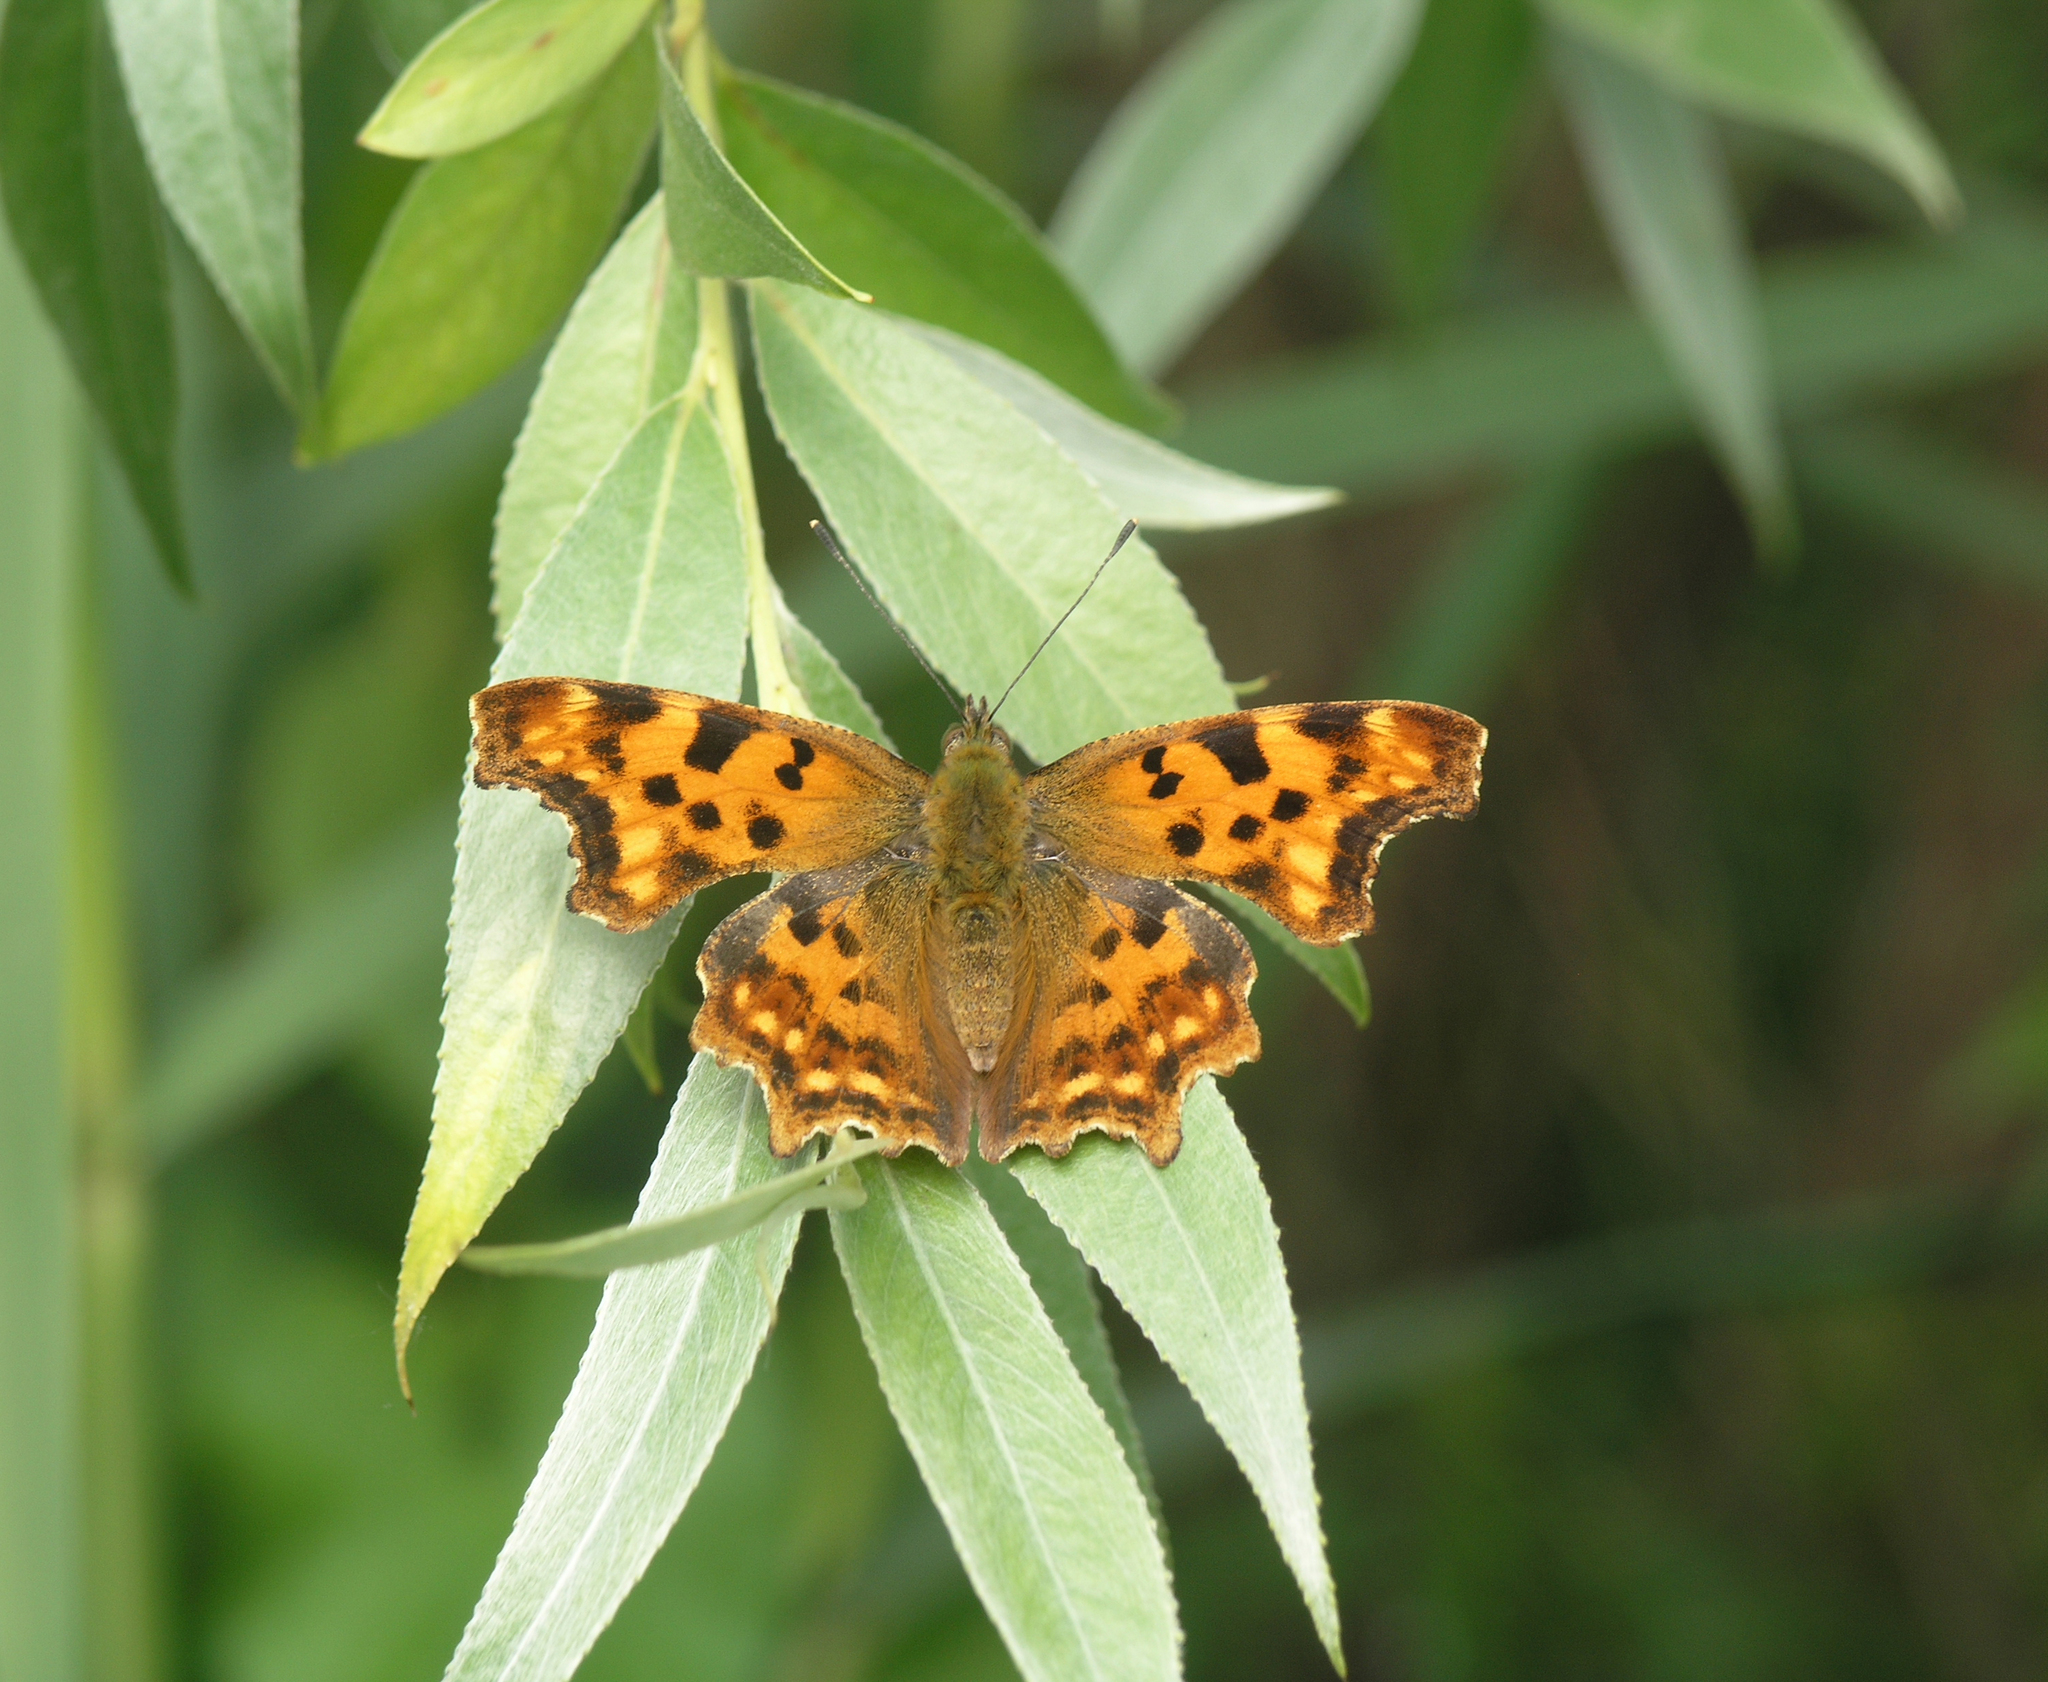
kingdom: Animalia
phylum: Arthropoda
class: Insecta
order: Lepidoptera
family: Nymphalidae
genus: Polygonia
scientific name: Polygonia c-album
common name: Comma
